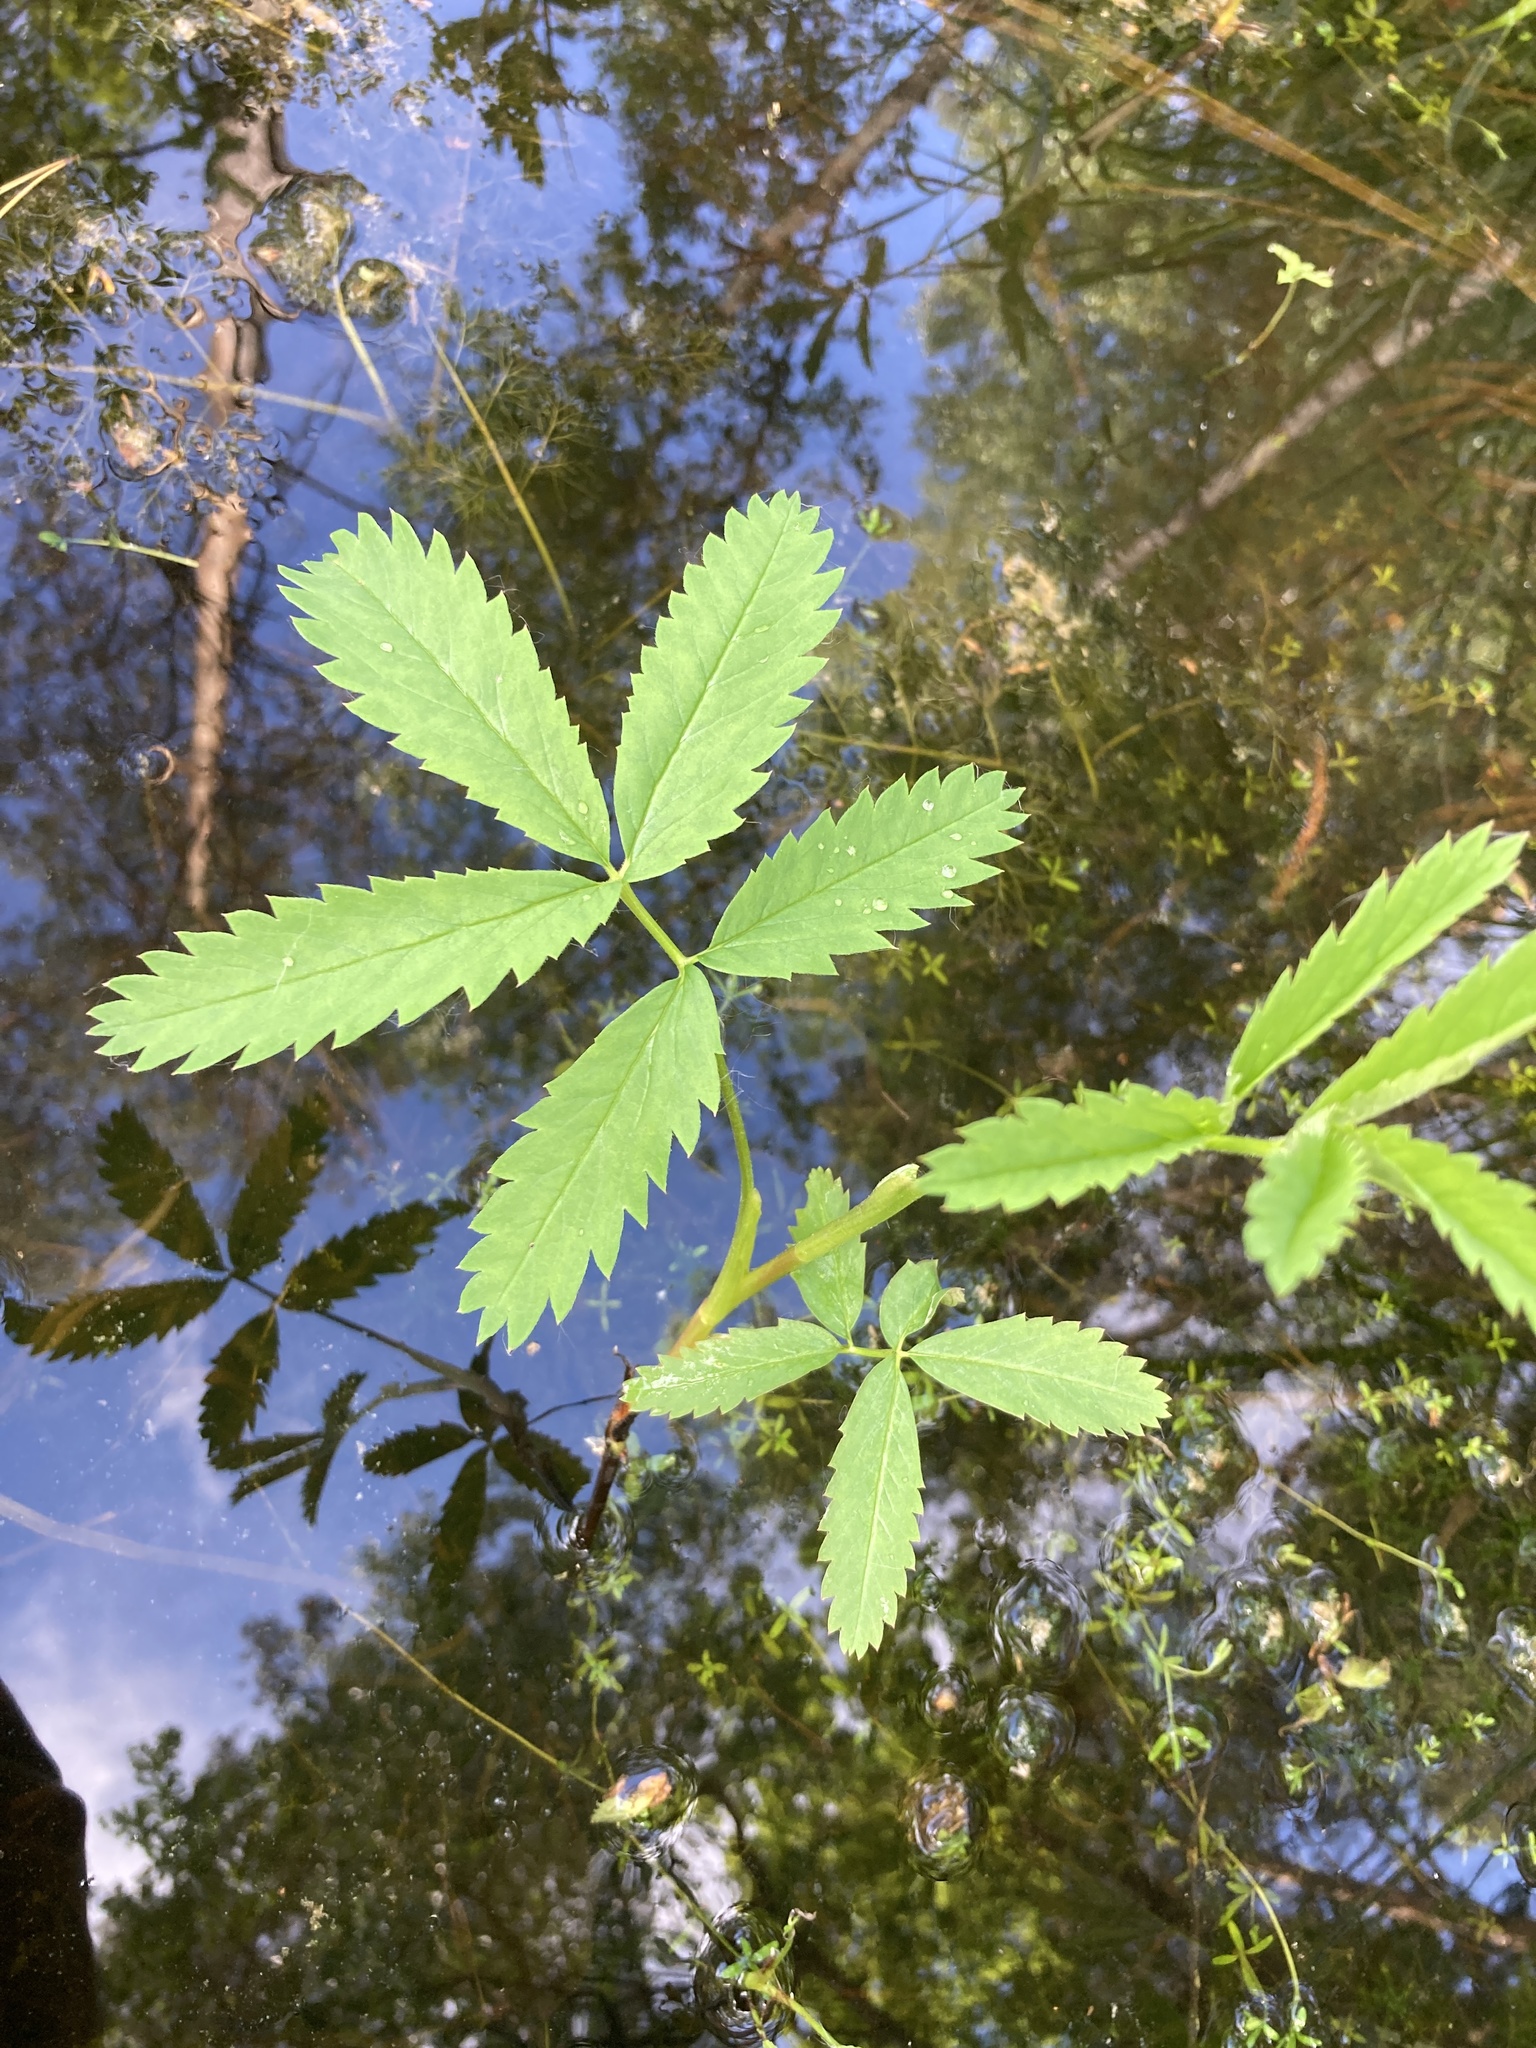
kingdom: Plantae
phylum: Tracheophyta
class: Magnoliopsida
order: Rosales
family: Rosaceae
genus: Comarum
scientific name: Comarum palustre
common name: Marsh cinquefoil
